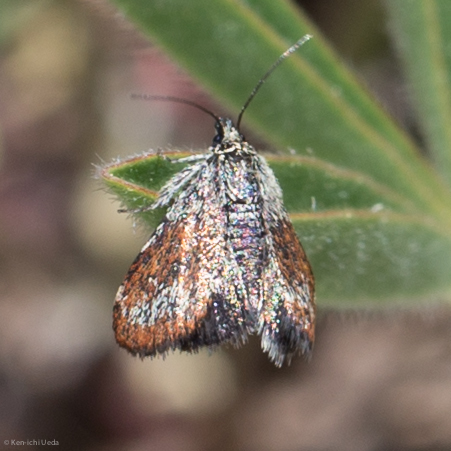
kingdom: Animalia
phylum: Arthropoda
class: Insecta
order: Lepidoptera
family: Crambidae
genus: Anatralata
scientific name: Anatralata versicolor
